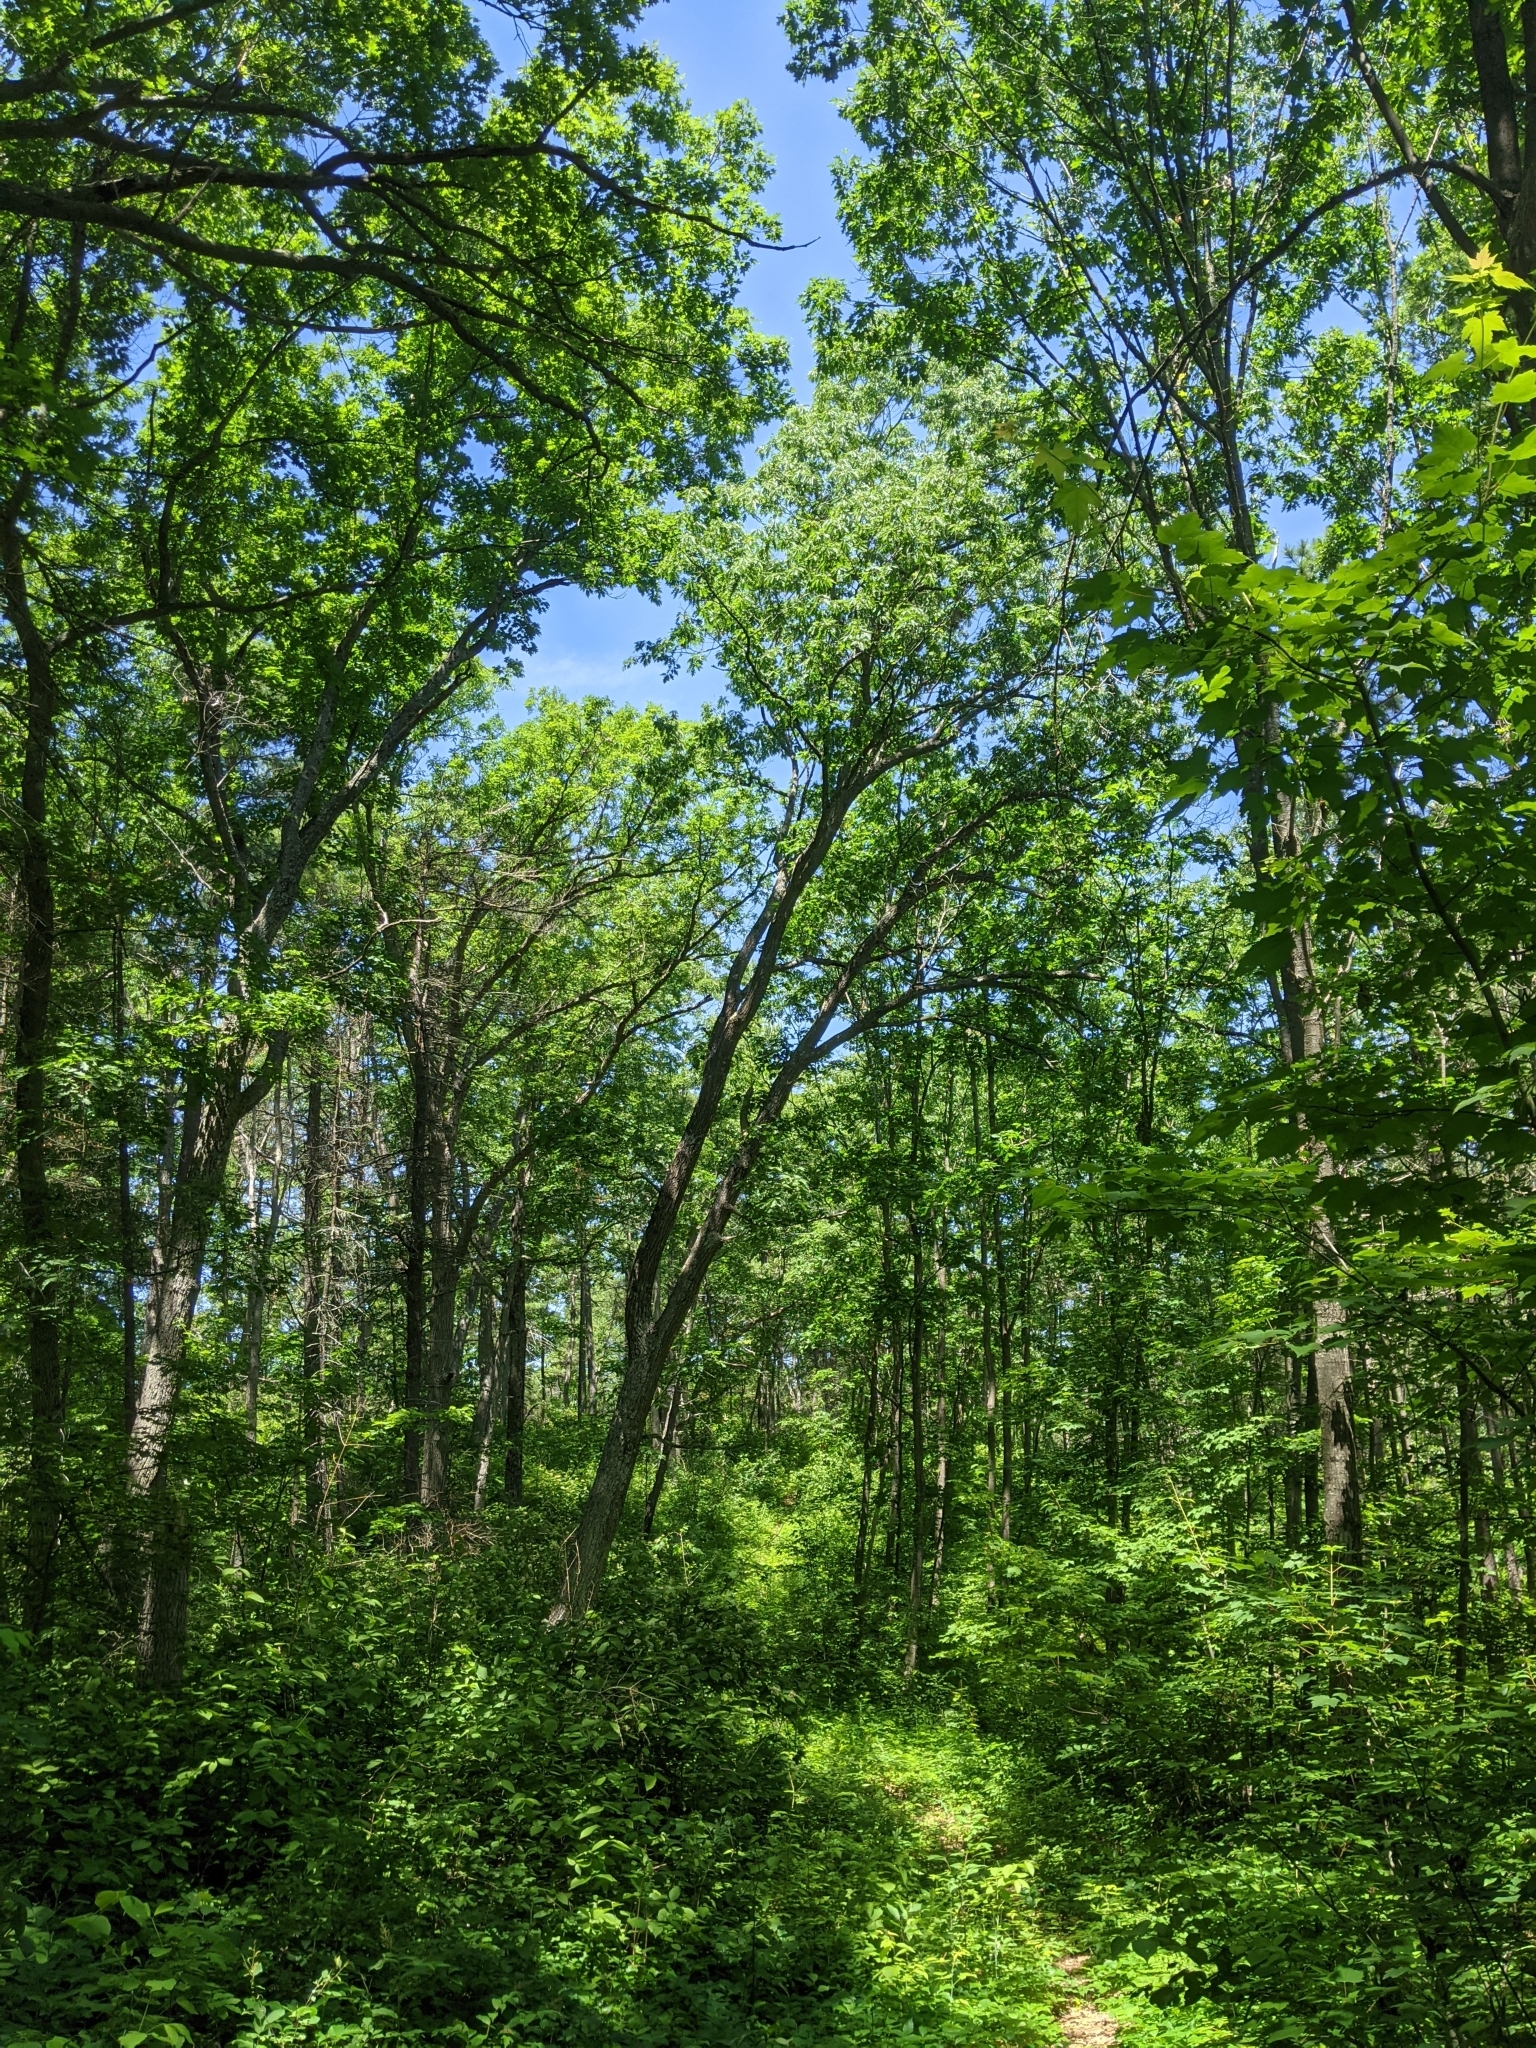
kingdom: Plantae
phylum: Tracheophyta
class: Magnoliopsida
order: Fagales
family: Fagaceae
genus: Quercus
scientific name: Quercus velutina
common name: Black oak
